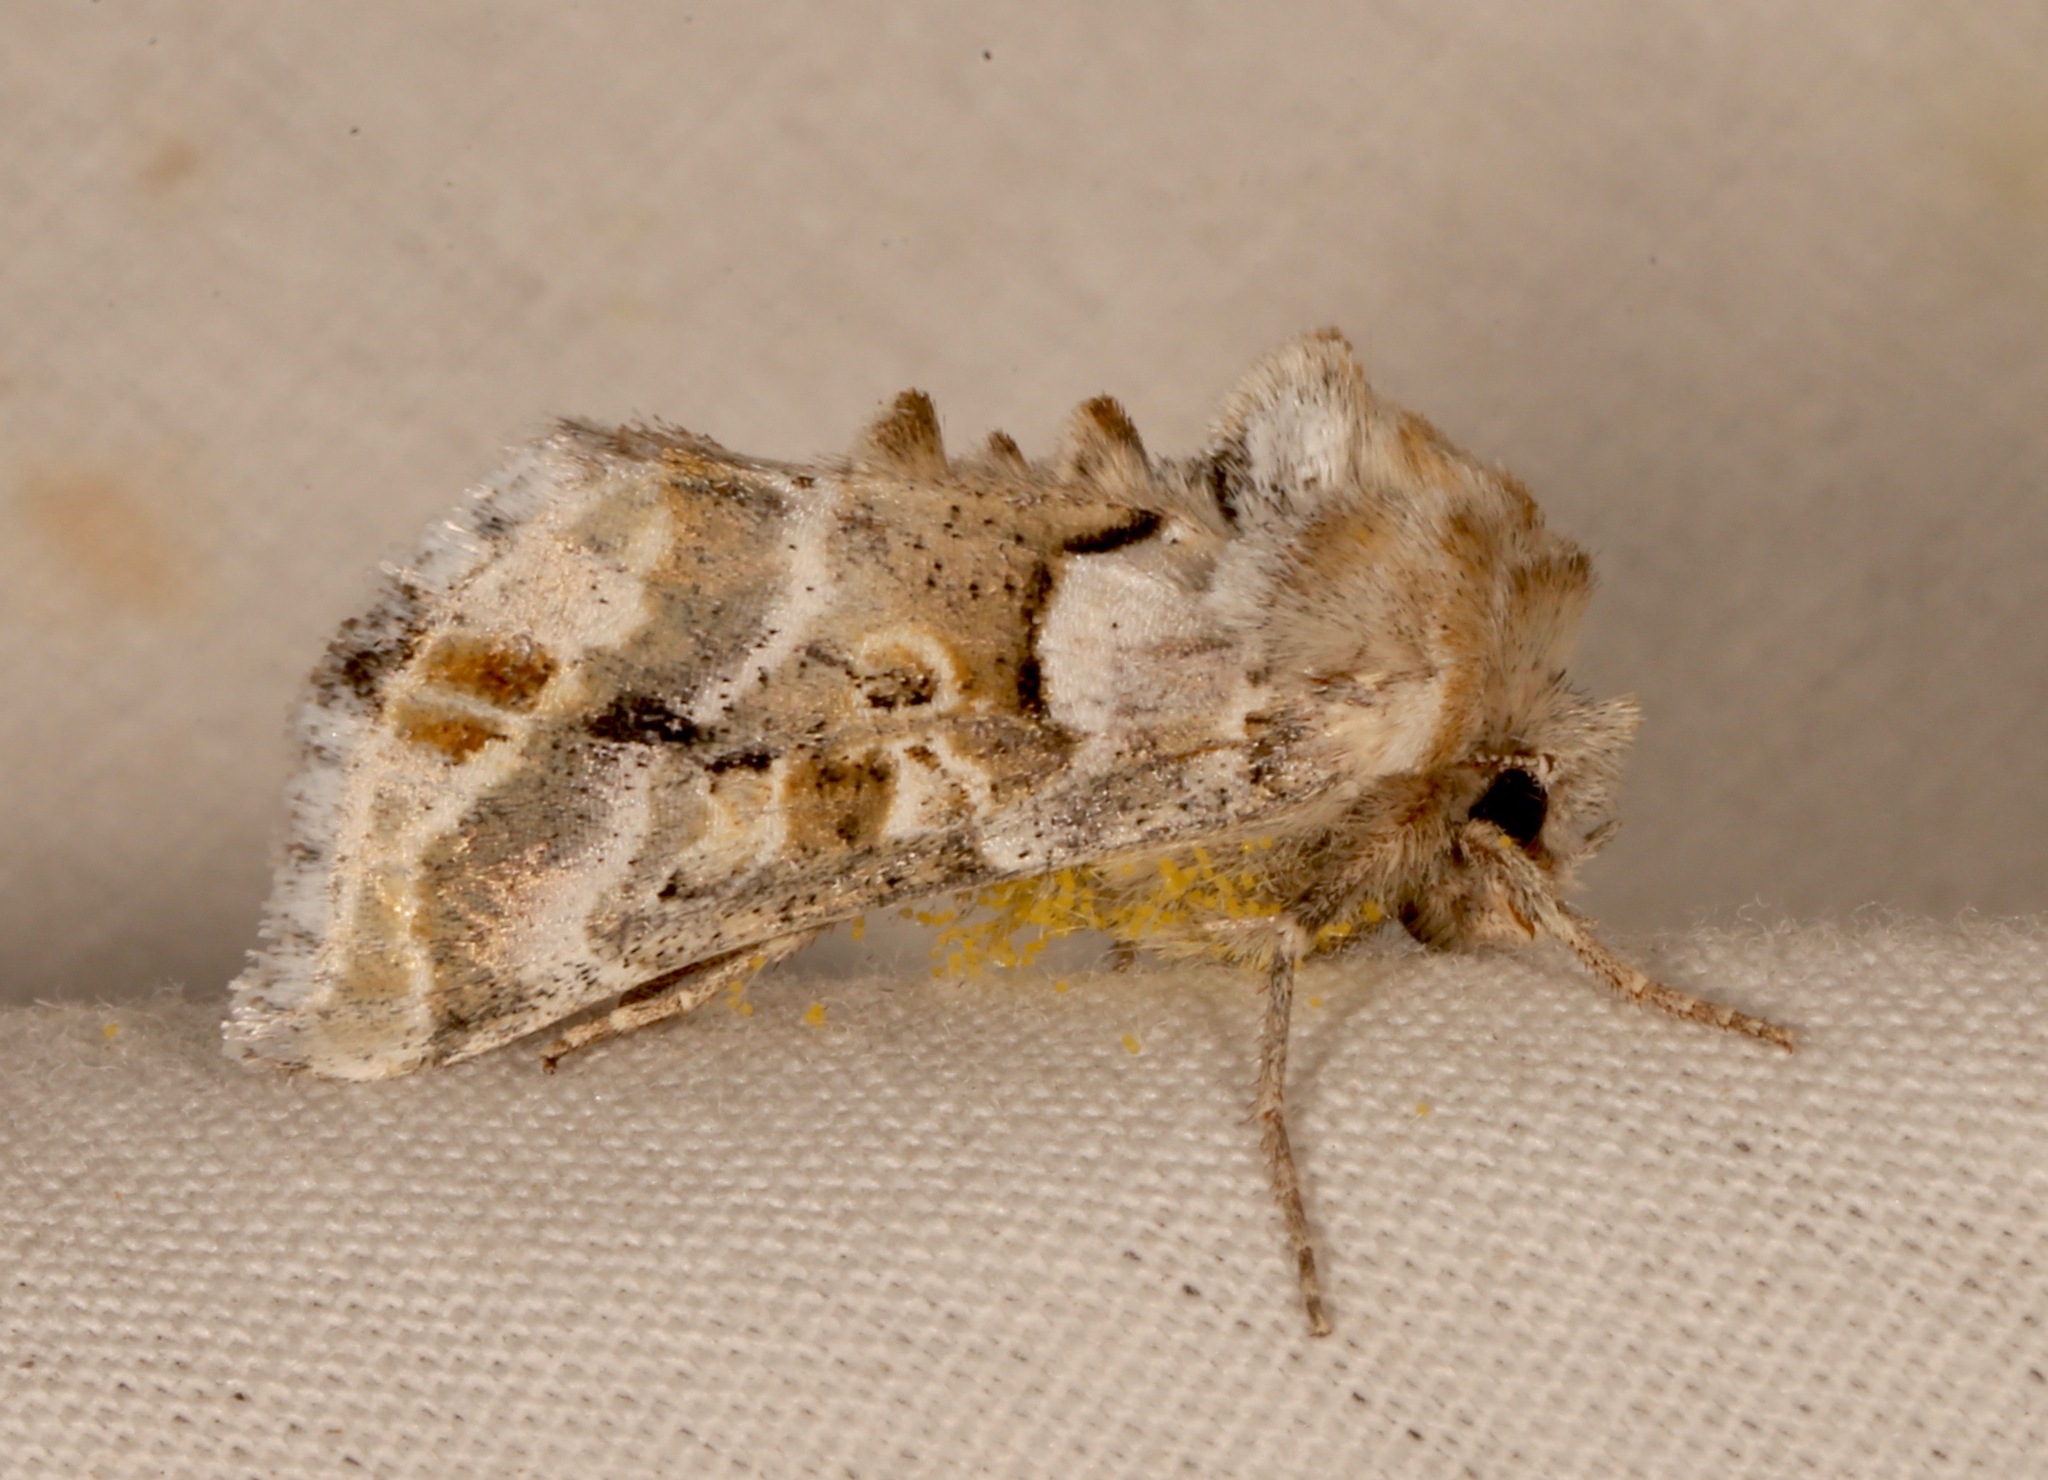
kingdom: Animalia
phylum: Arthropoda
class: Insecta
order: Lepidoptera
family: Noctuidae
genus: Euchalcia
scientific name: Euchalcia albavitta
